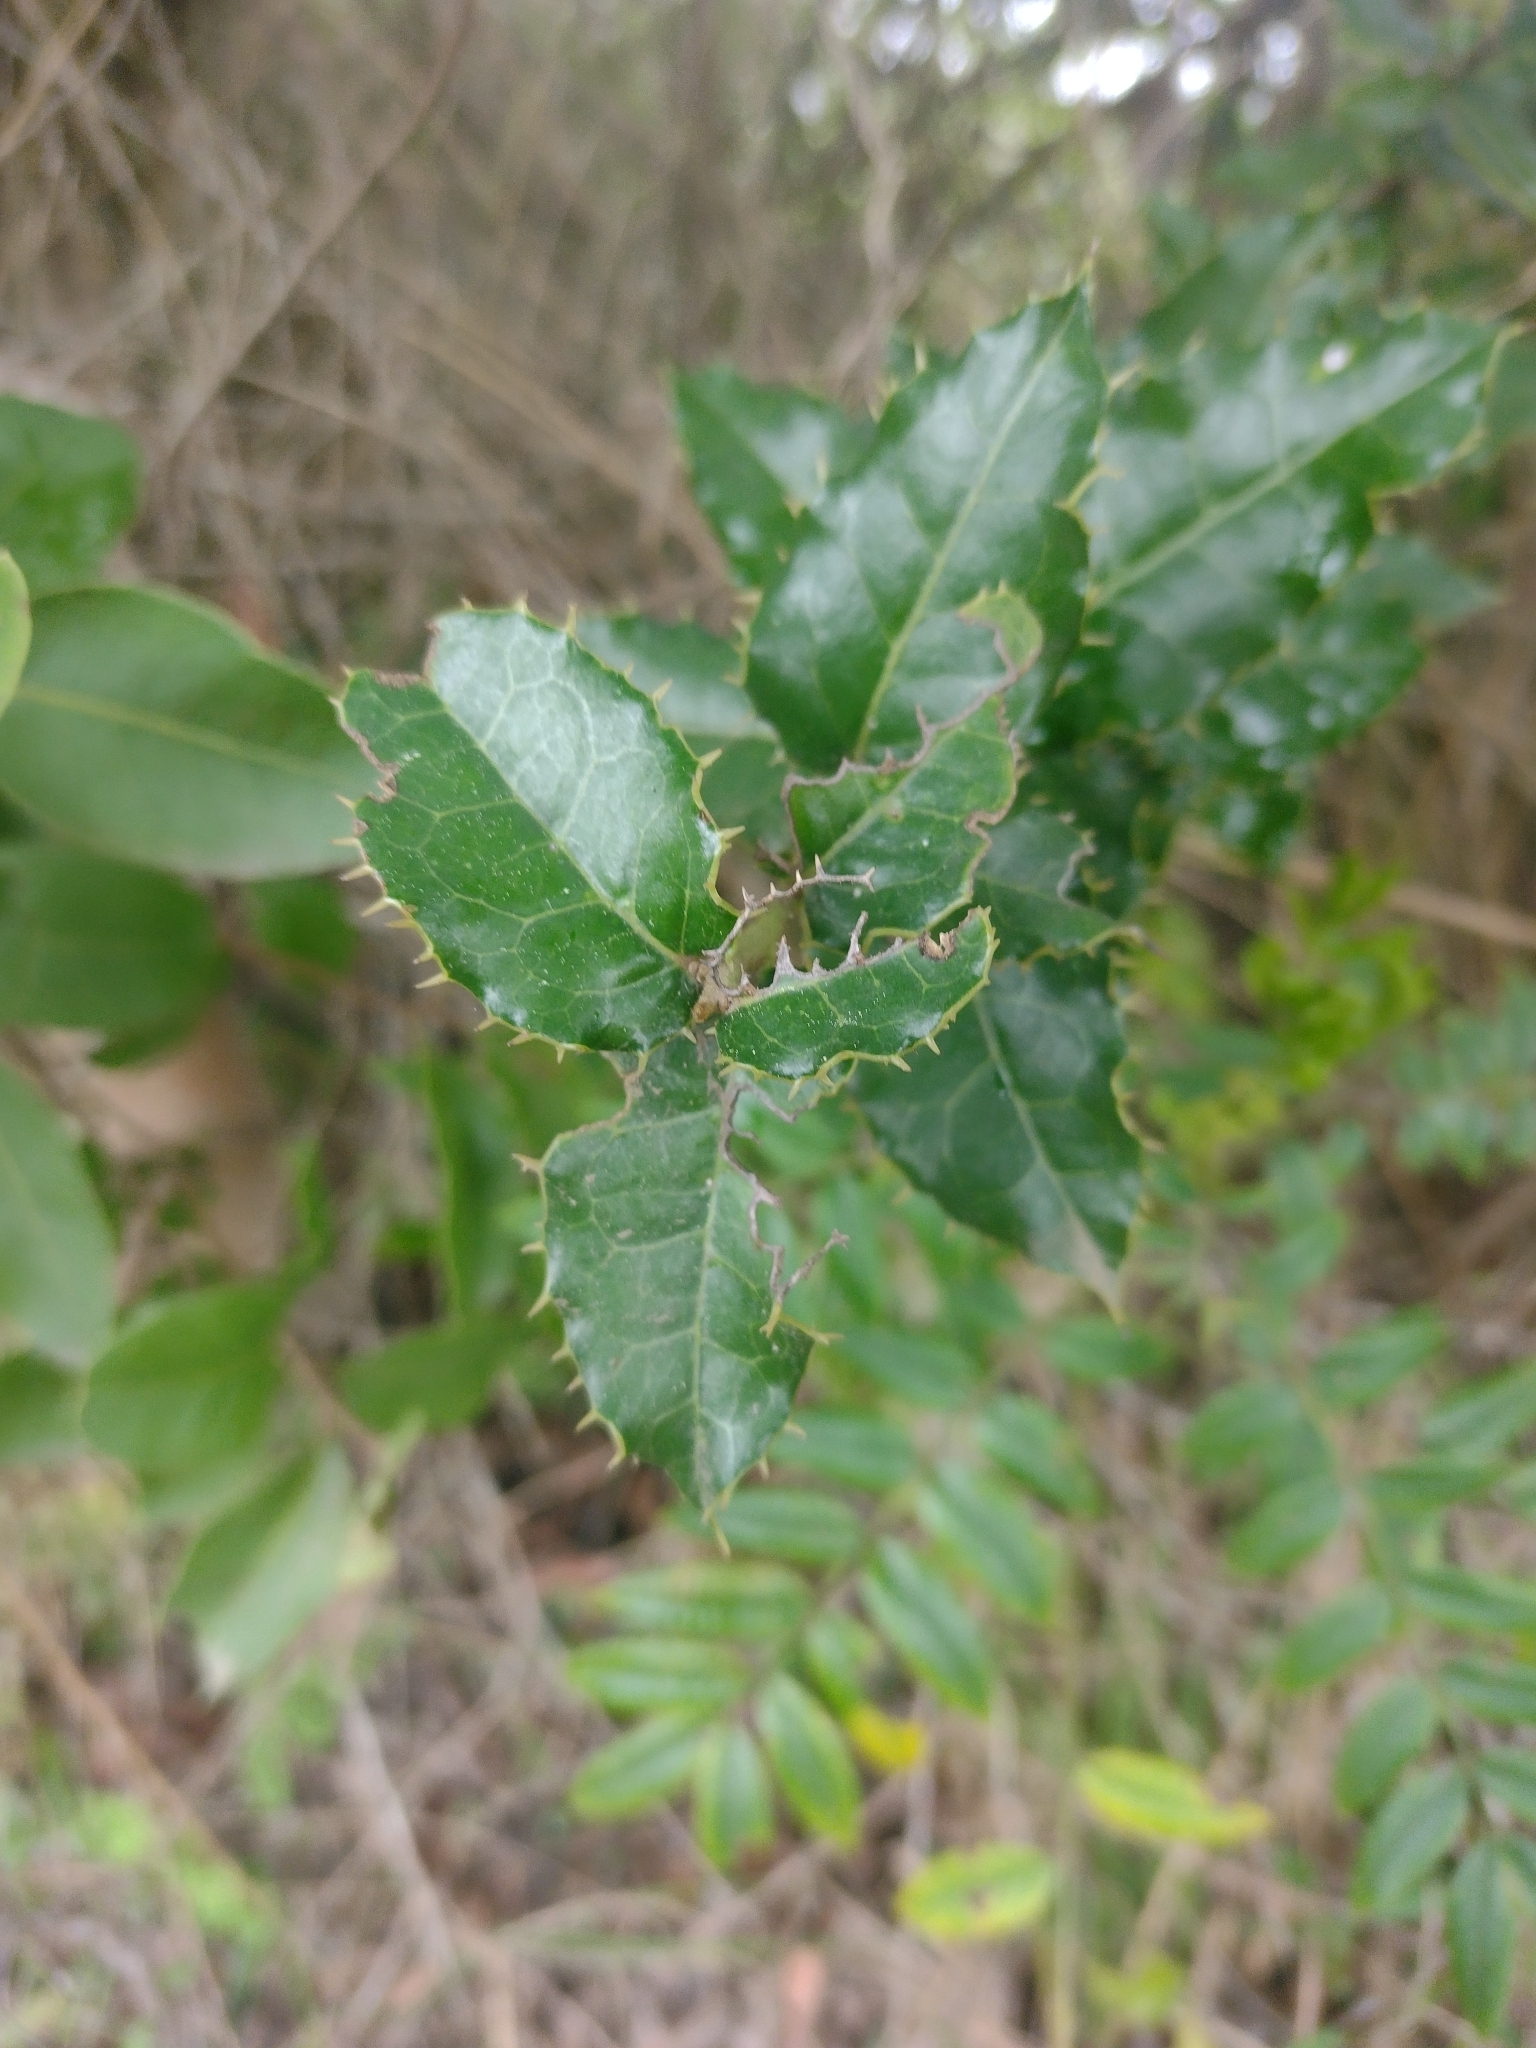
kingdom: Plantae
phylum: Tracheophyta
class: Magnoliopsida
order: Cardiopteridales
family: Cardiopteridaceae
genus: Citronella
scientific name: Citronella mucronata
